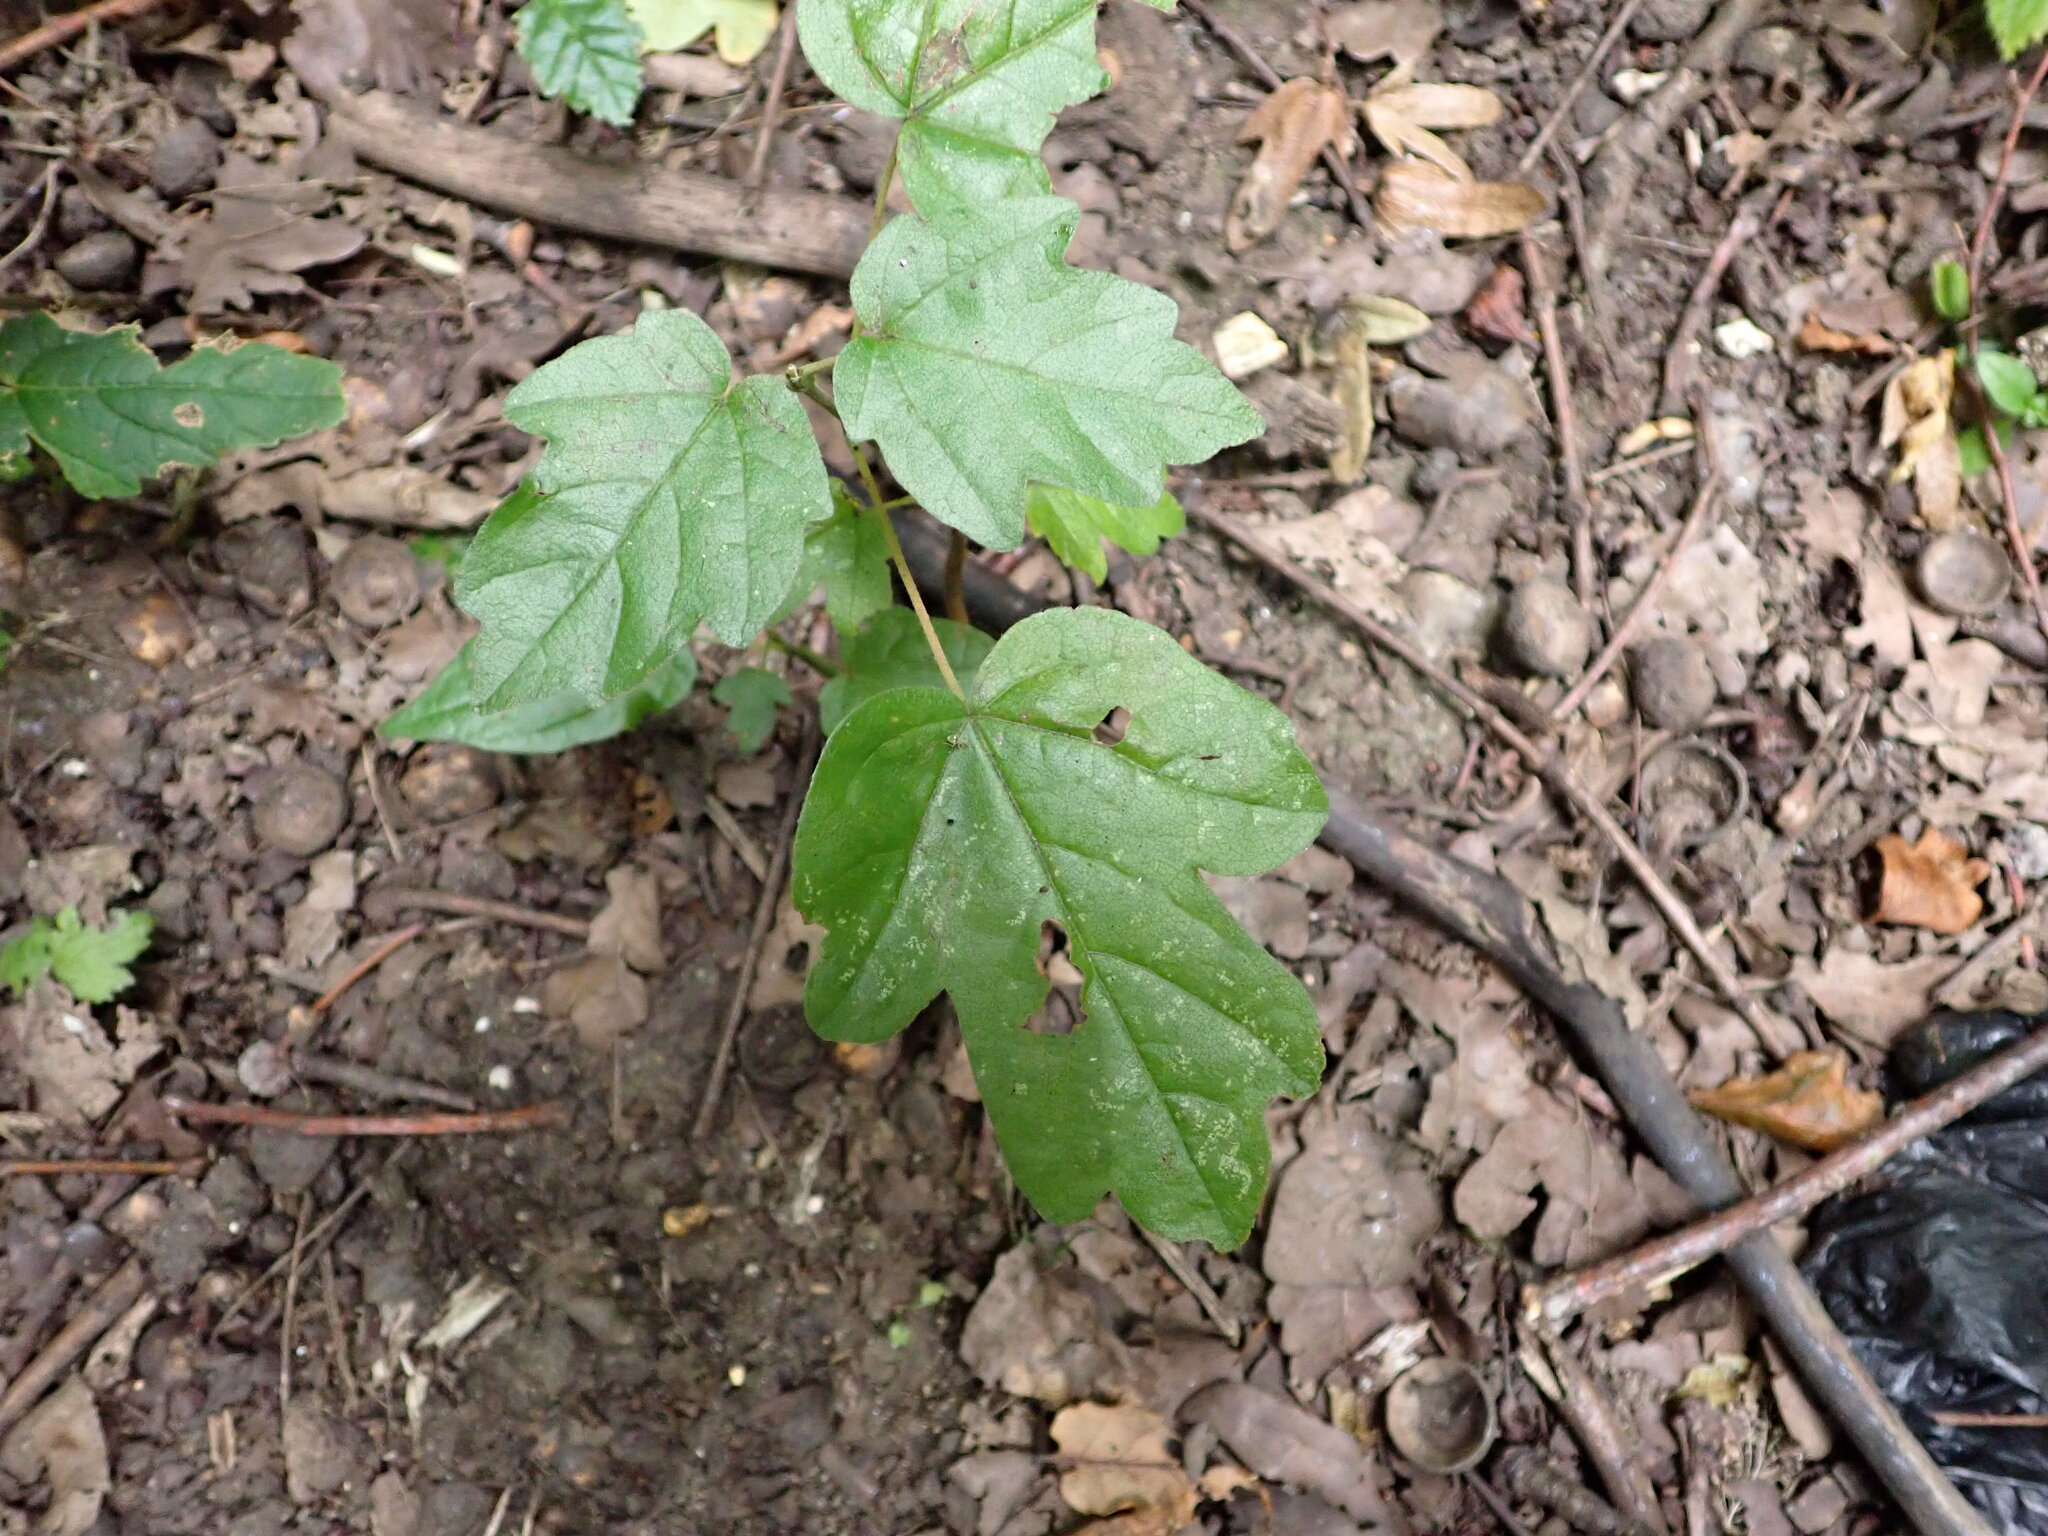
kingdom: Plantae
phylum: Tracheophyta
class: Magnoliopsida
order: Sapindales
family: Sapindaceae
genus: Acer
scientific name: Acer campestre
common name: Field maple
